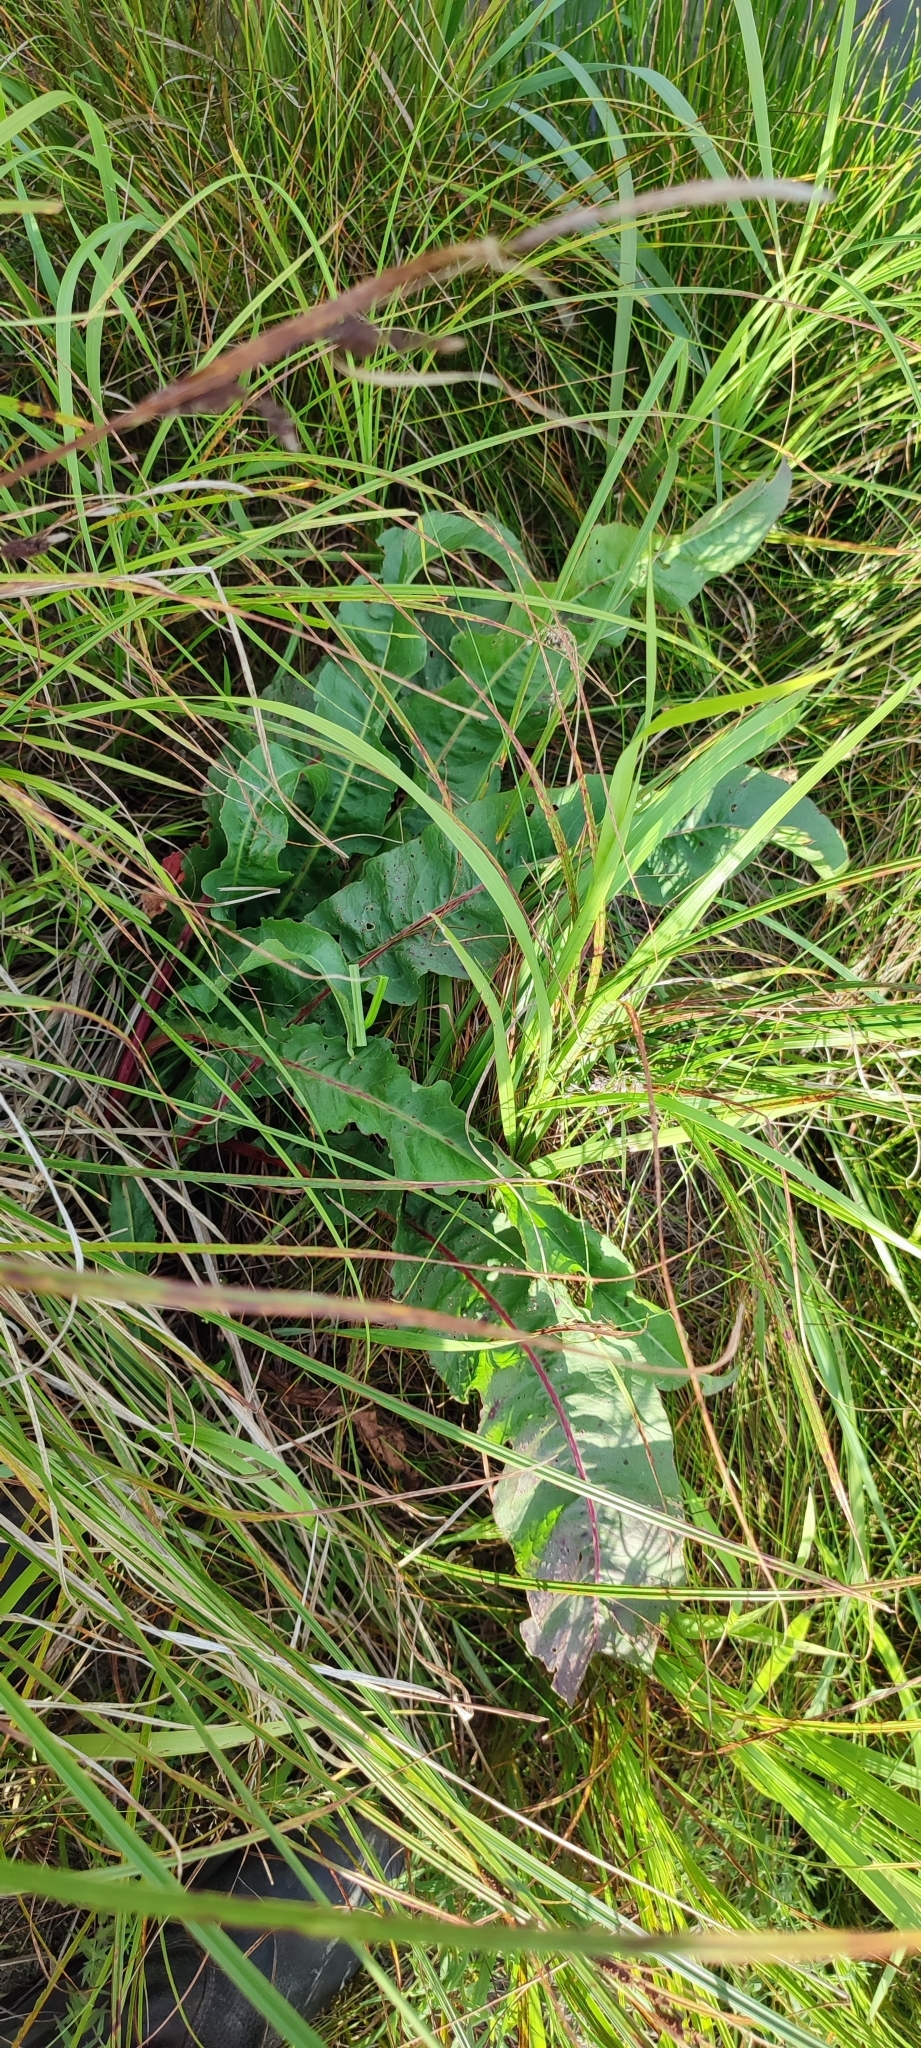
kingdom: Plantae
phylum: Tracheophyta
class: Magnoliopsida
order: Caryophyllales
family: Polygonaceae
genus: Rumex
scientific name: Rumex aquaticus
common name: Scottish dock
